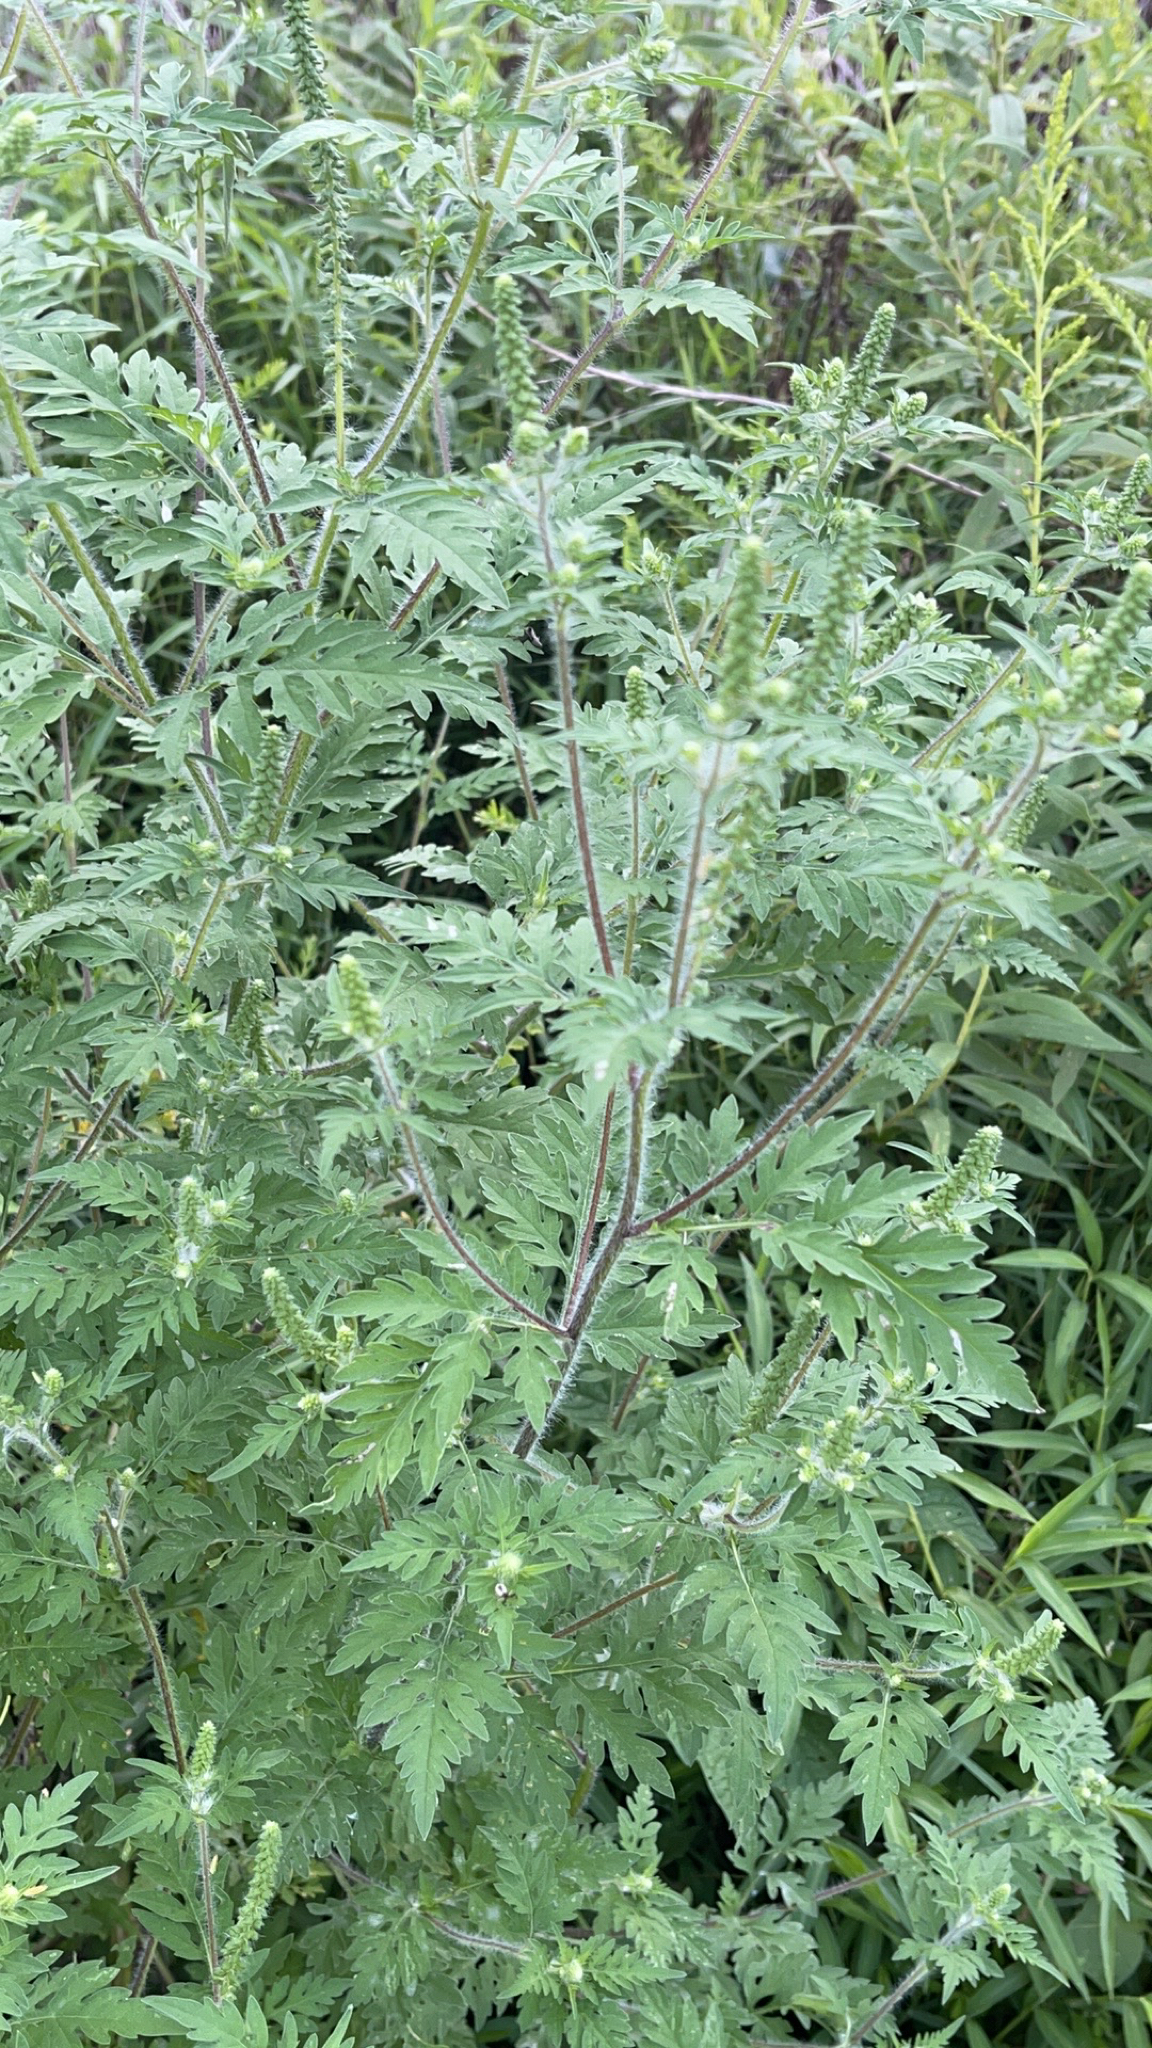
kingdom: Plantae
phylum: Tracheophyta
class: Magnoliopsida
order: Asterales
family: Asteraceae
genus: Ambrosia
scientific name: Ambrosia artemisiifolia
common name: Annual ragweed
